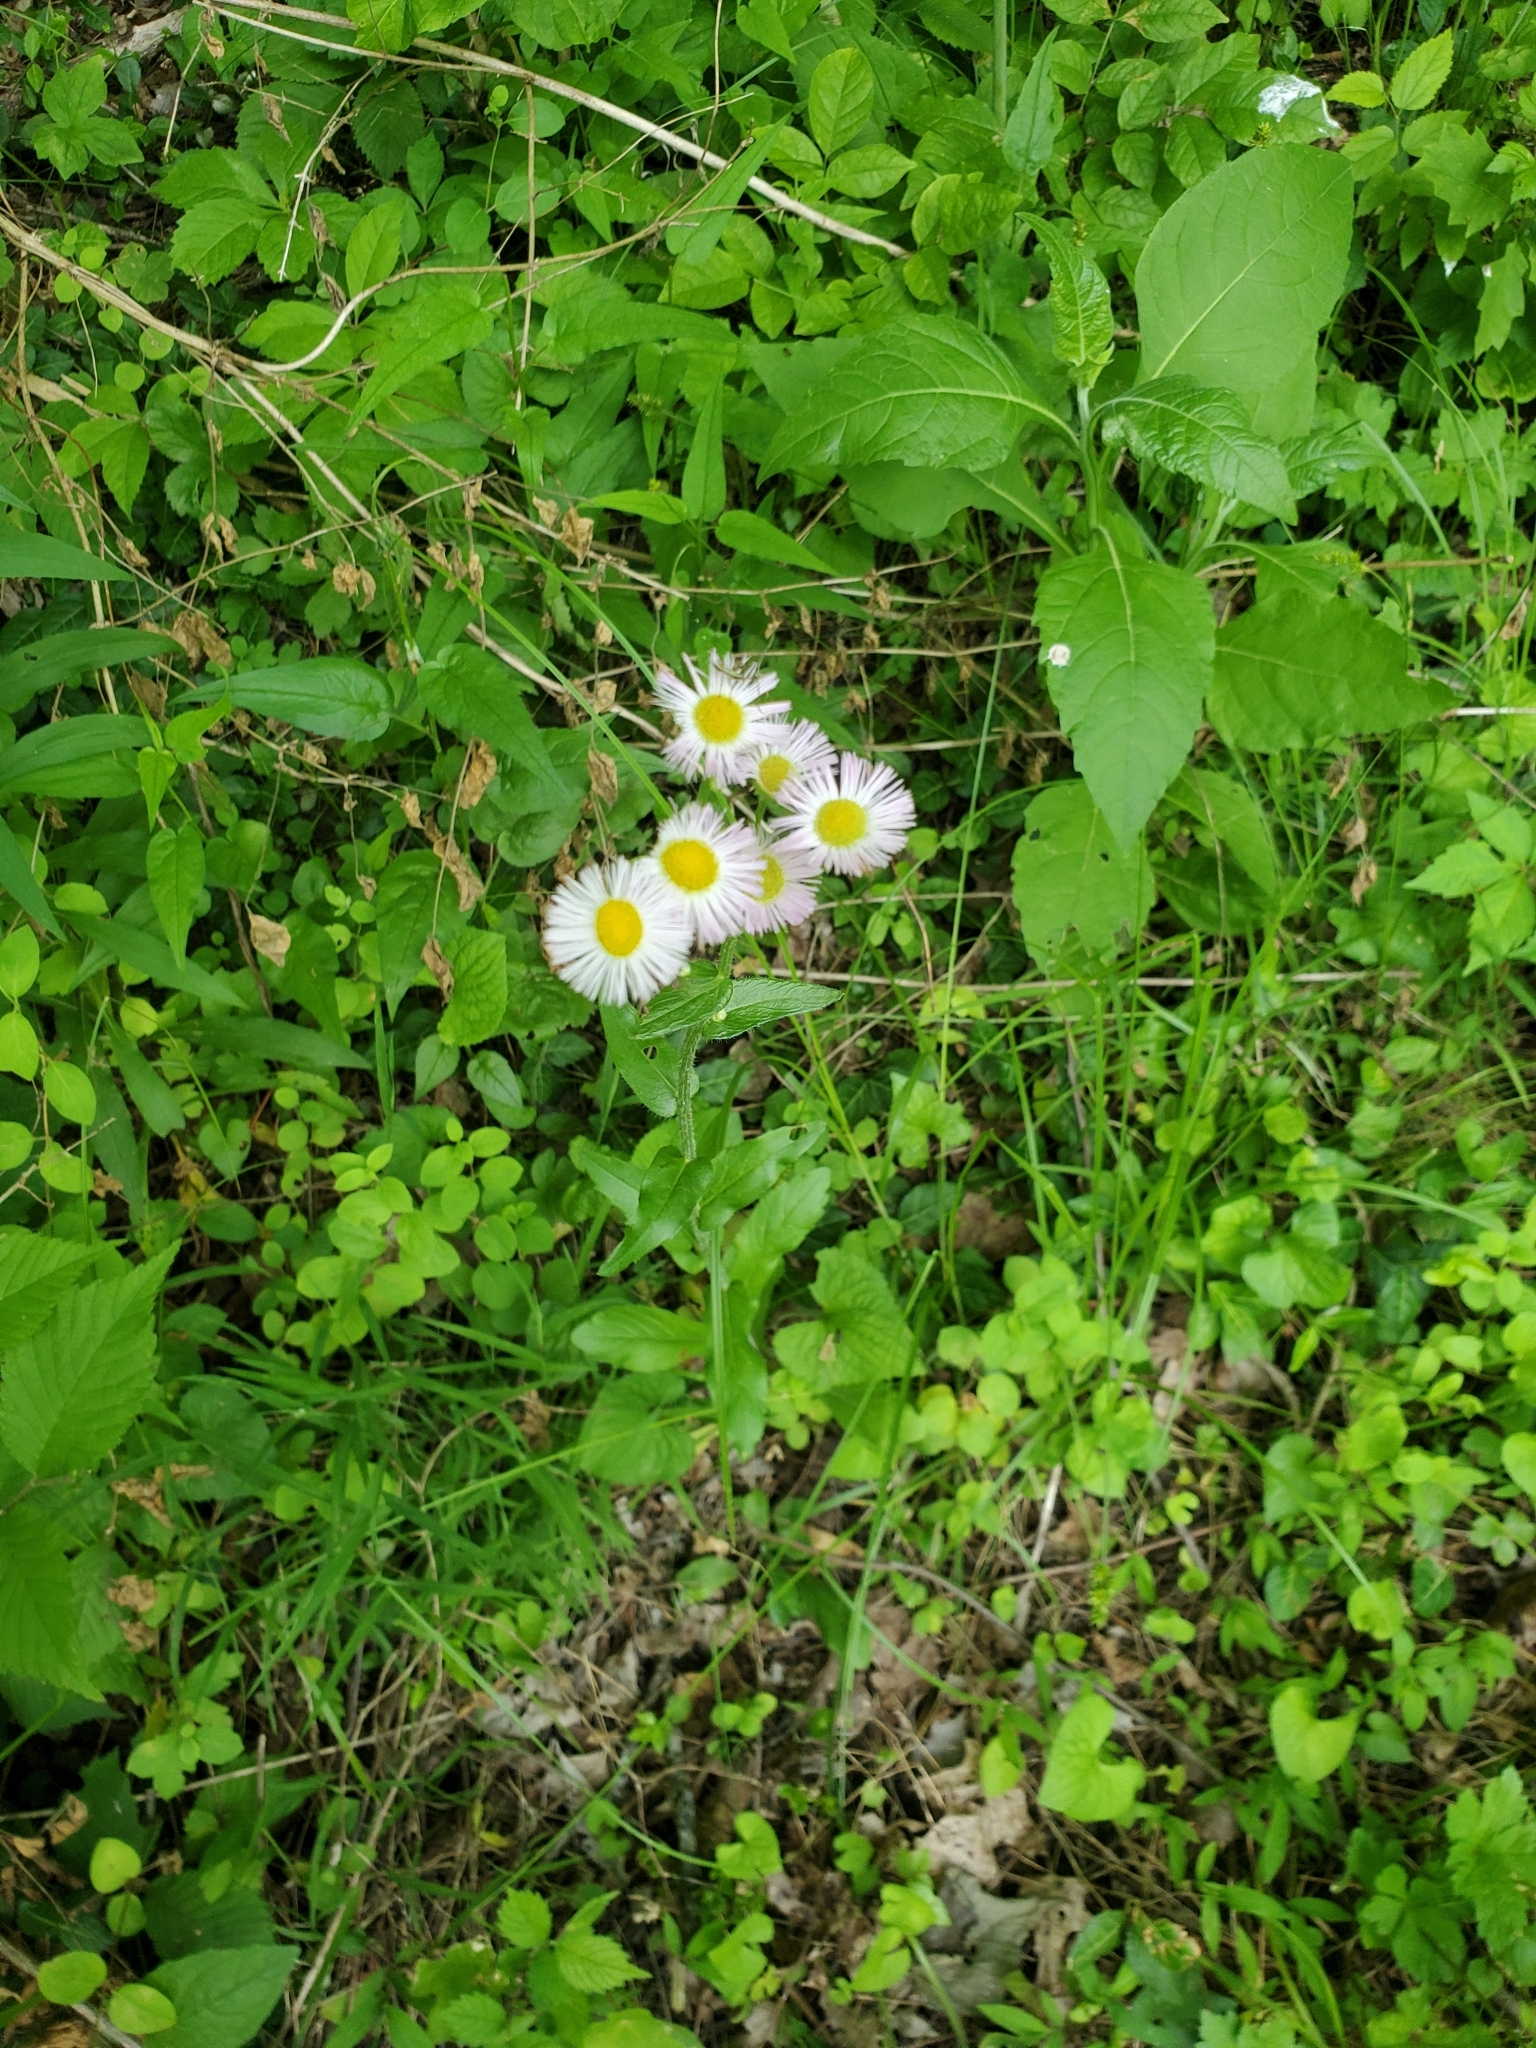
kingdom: Plantae
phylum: Tracheophyta
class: Magnoliopsida
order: Asterales
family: Asteraceae
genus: Erigeron
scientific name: Erigeron philadelphicus
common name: Robin's-plantain
